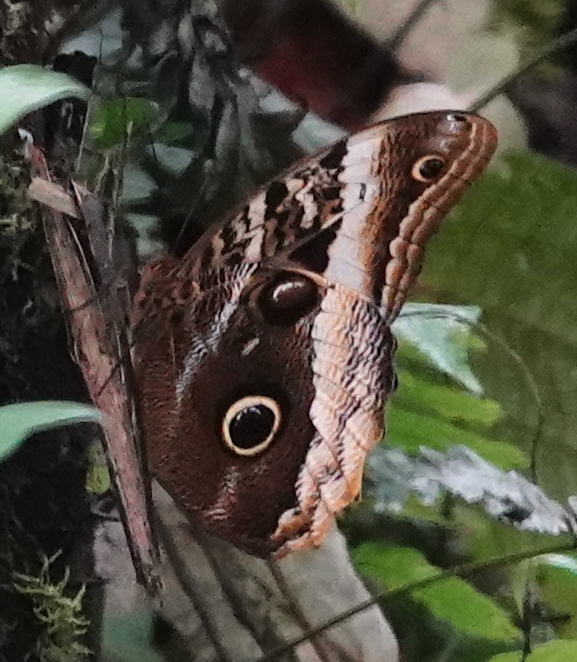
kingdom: Animalia
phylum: Arthropoda
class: Insecta
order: Lepidoptera
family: Nymphalidae
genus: Caligo
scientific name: Caligo atreus
